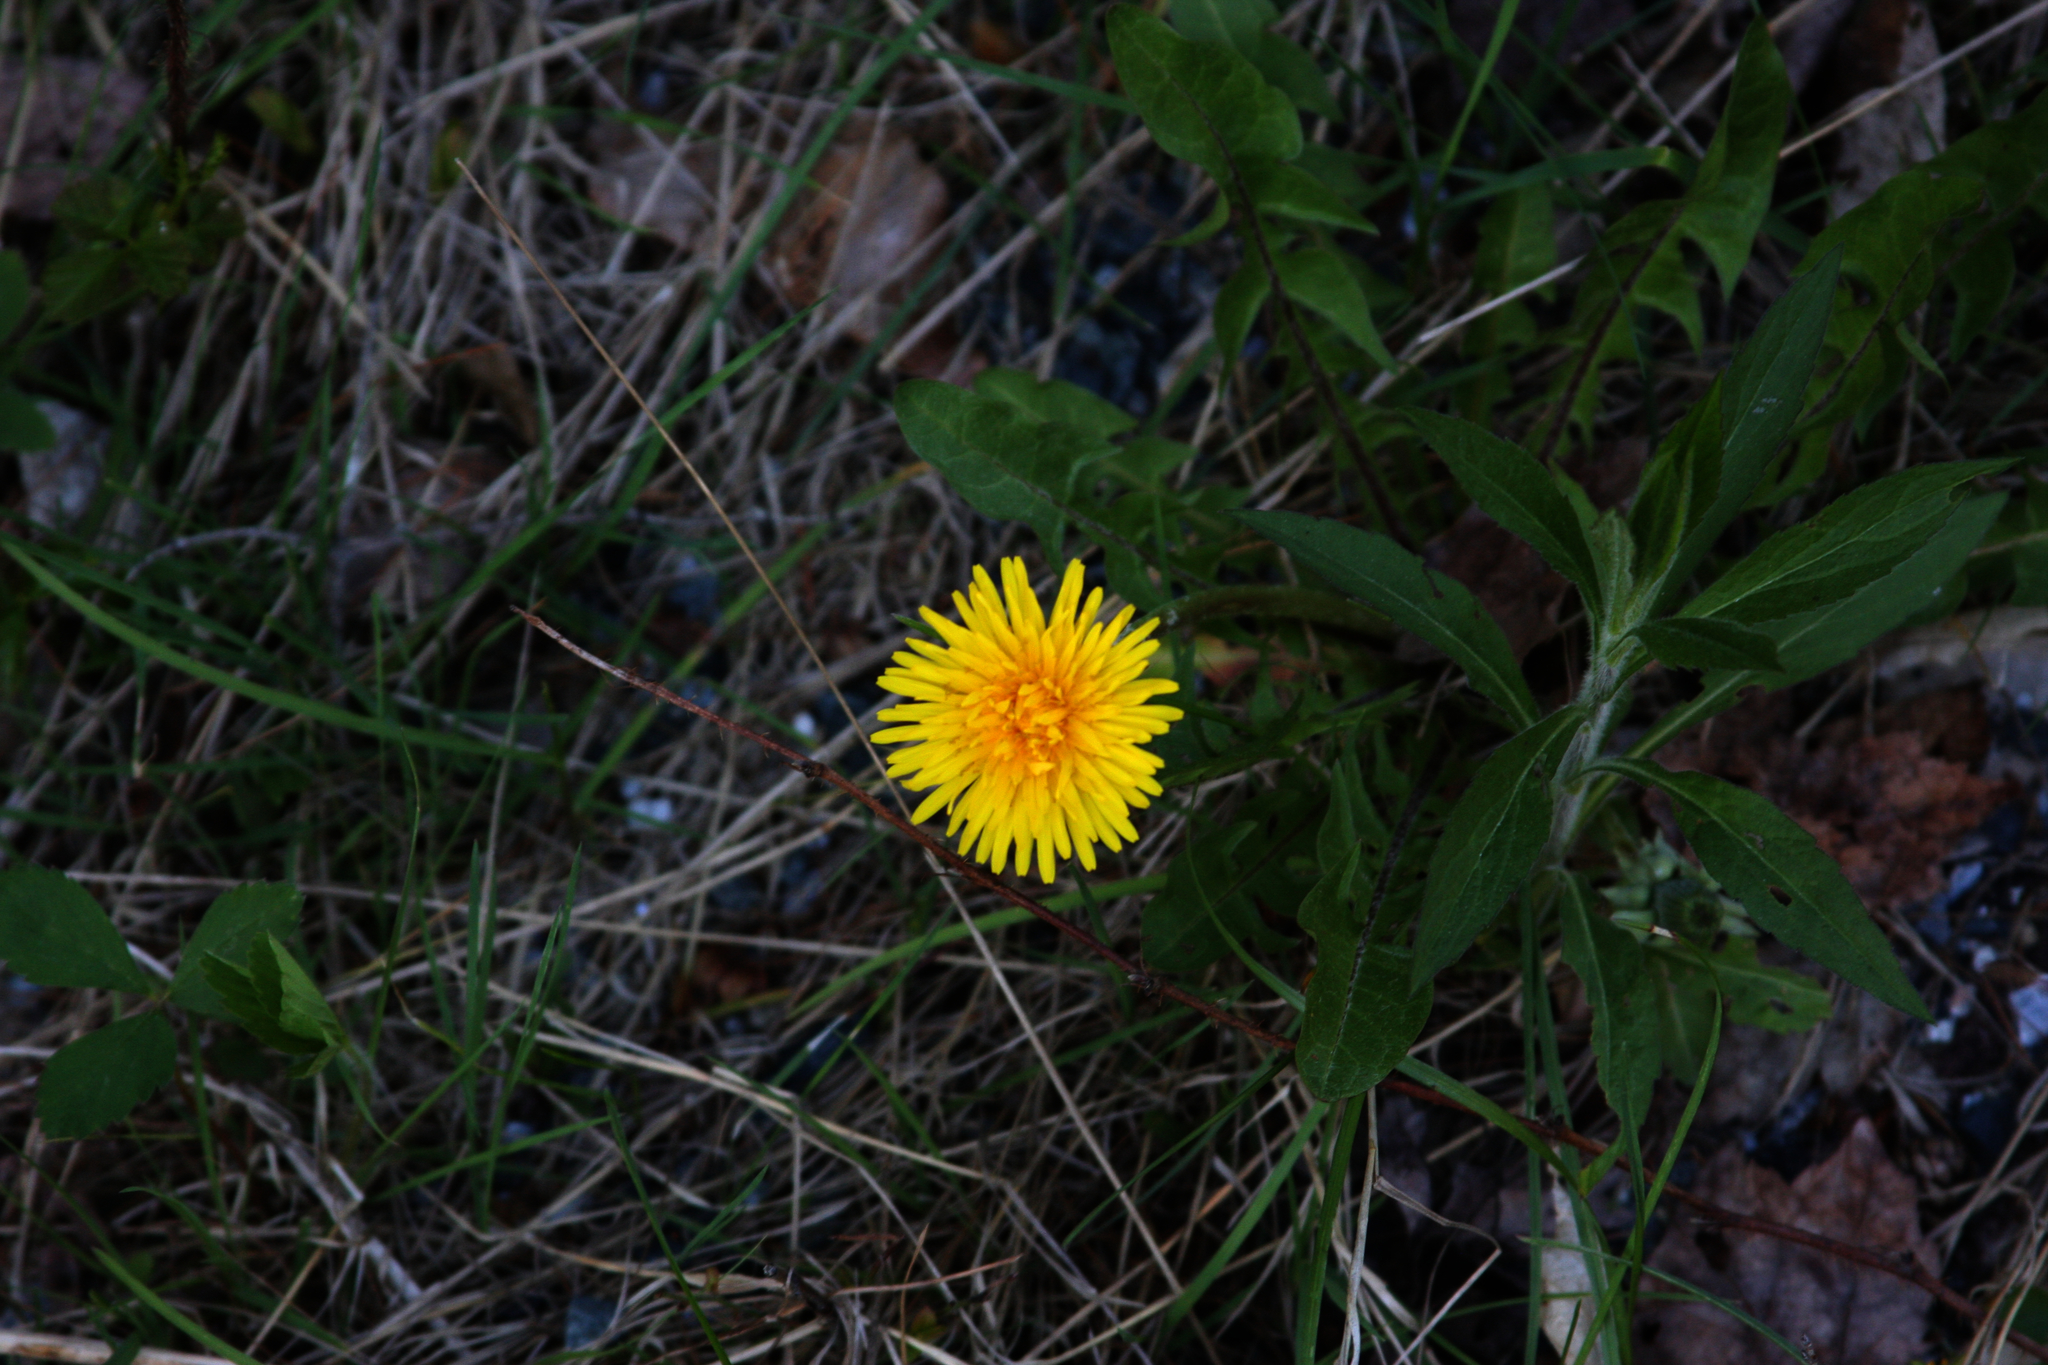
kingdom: Plantae
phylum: Tracheophyta
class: Magnoliopsida
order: Asterales
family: Asteraceae
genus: Taraxacum
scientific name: Taraxacum officinale
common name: Common dandelion
